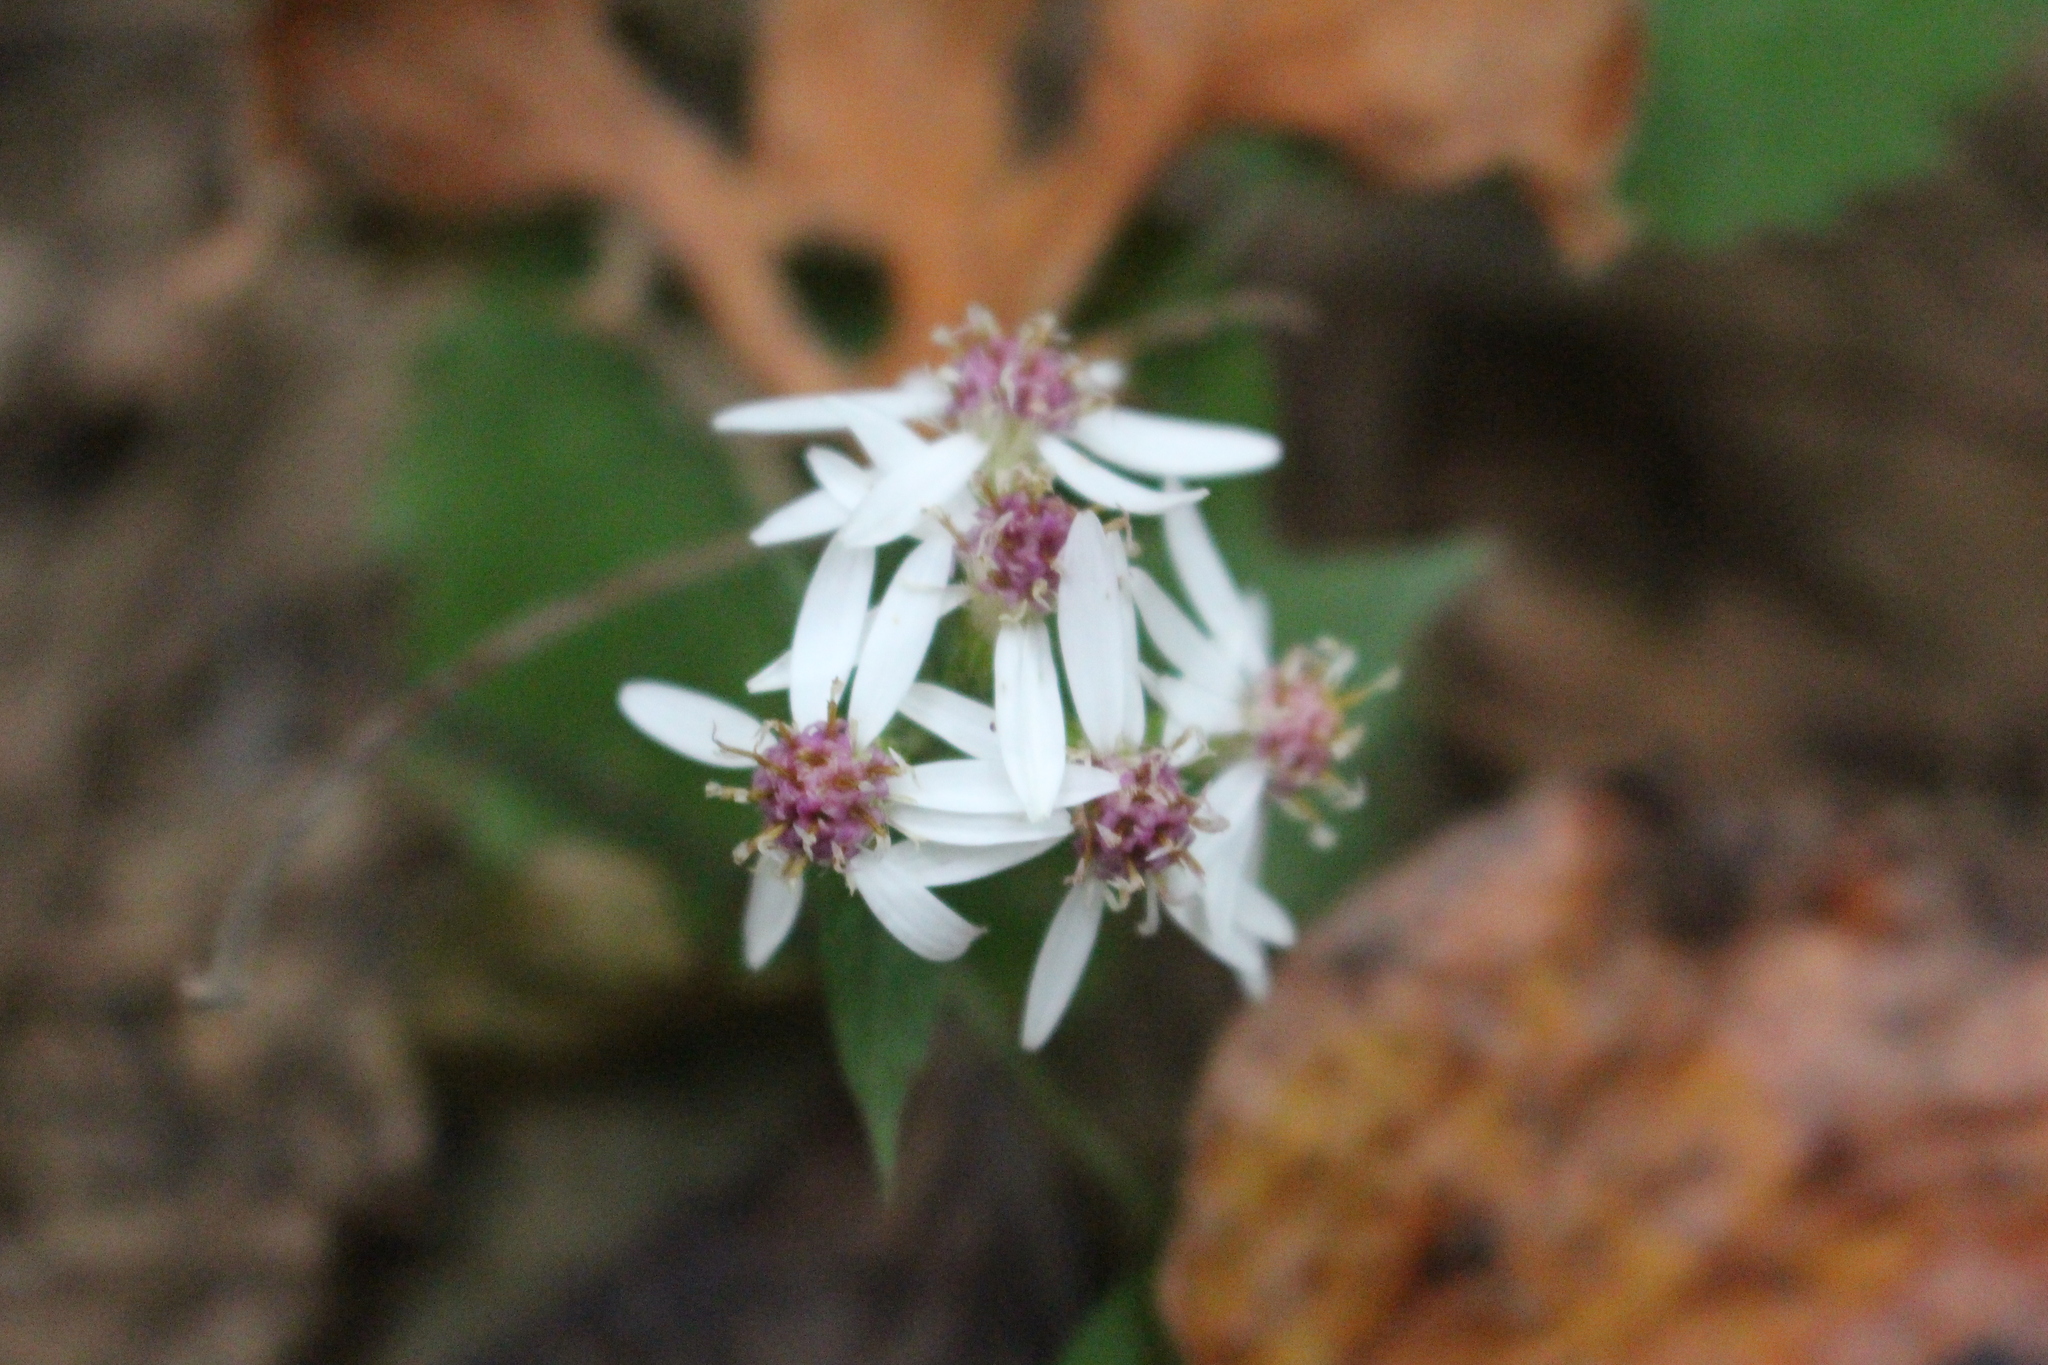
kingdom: Plantae
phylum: Tracheophyta
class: Magnoliopsida
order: Asterales
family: Asteraceae
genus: Eurybia
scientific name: Eurybia divaricata
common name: White wood aster
